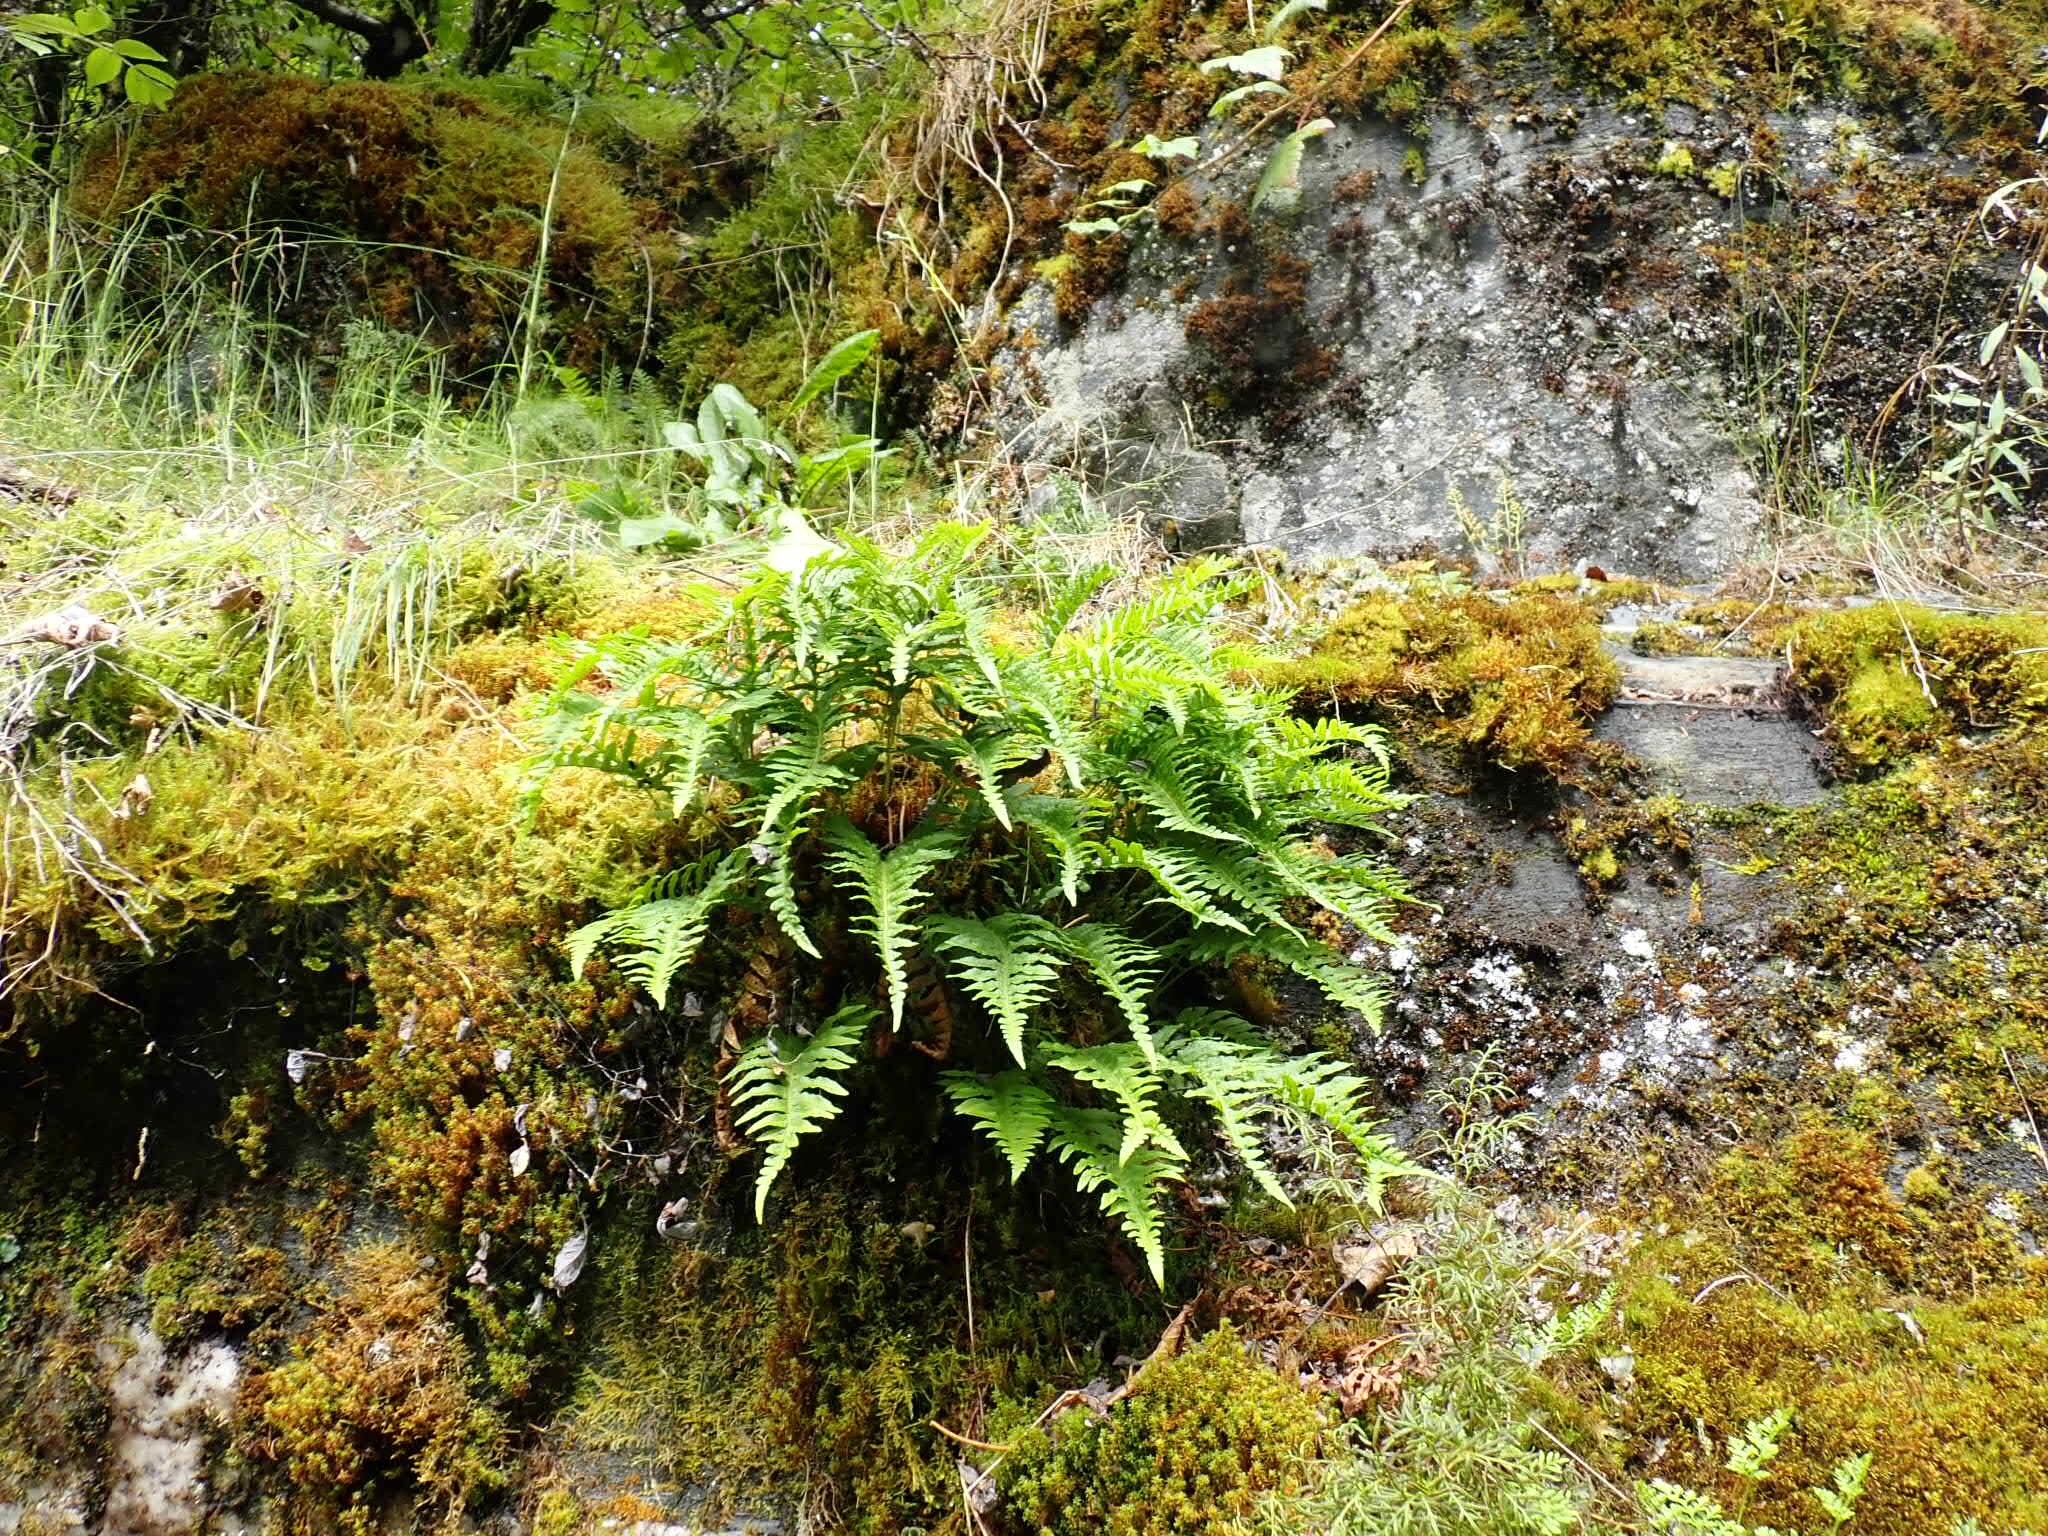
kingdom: Plantae
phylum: Tracheophyta
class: Polypodiopsida
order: Polypodiales
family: Polypodiaceae
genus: Polypodium
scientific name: Polypodium glycyrrhiza
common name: Licorice fern
